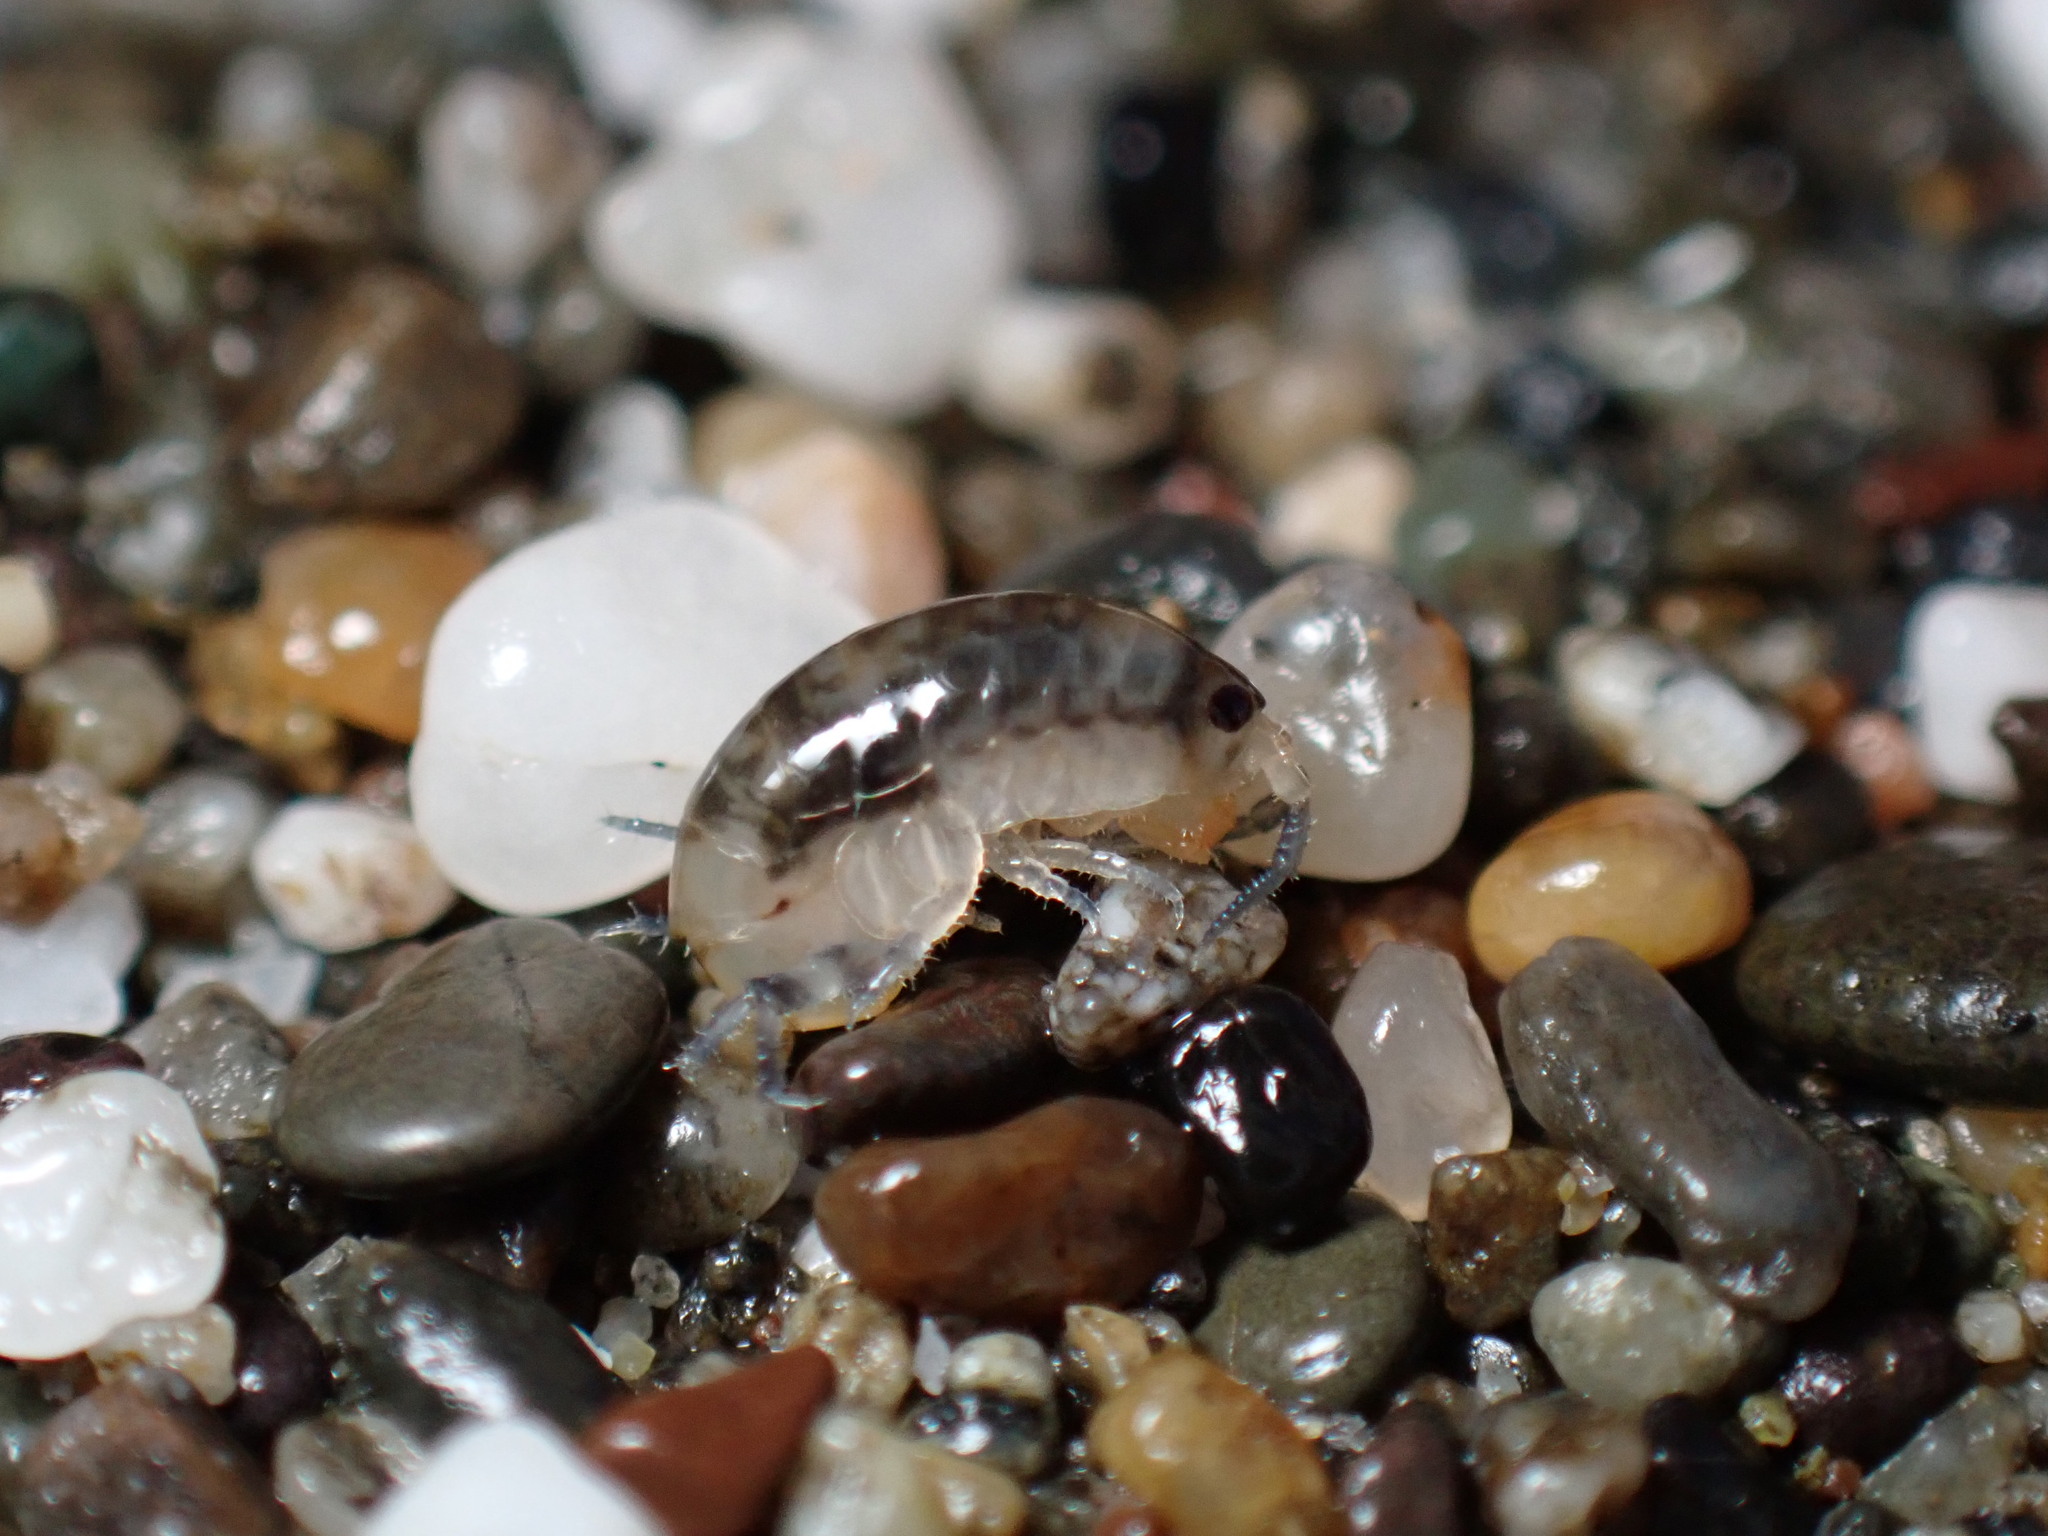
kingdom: Animalia
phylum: Arthropoda
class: Malacostraca
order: Amphipoda
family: Talitridae
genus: Megalorchestia
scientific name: Megalorchestia pugettensis
